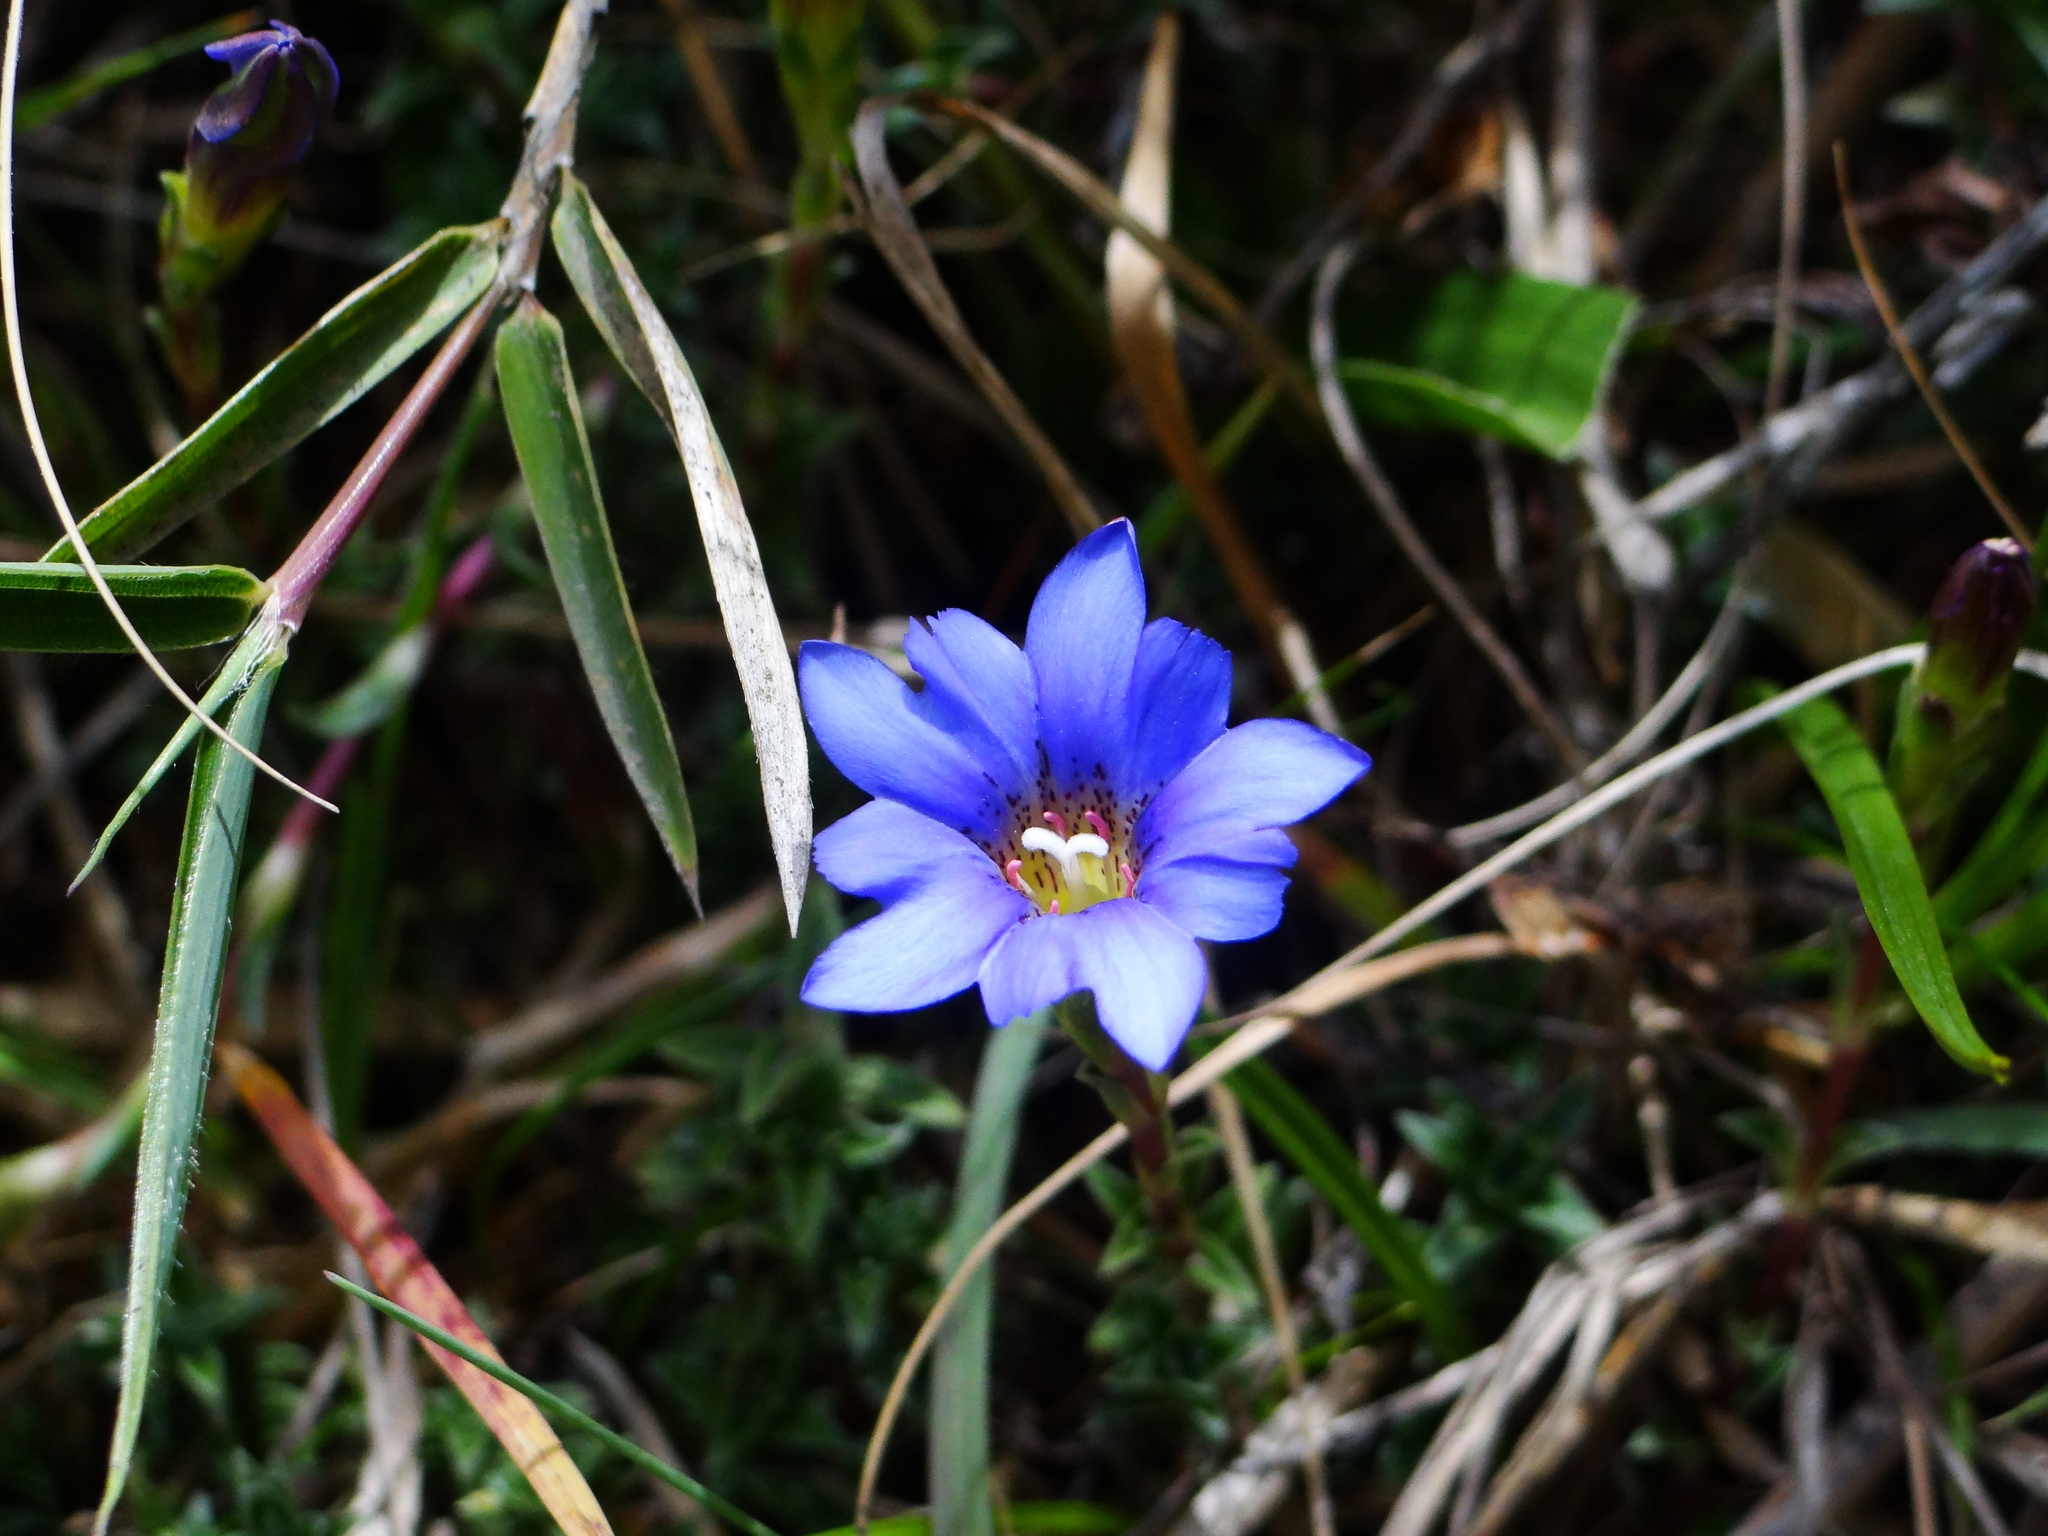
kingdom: Plantae
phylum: Tracheophyta
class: Magnoliopsida
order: Gentianales
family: Gentianaceae
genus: Gentiana
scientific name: Gentiana arisanensis
